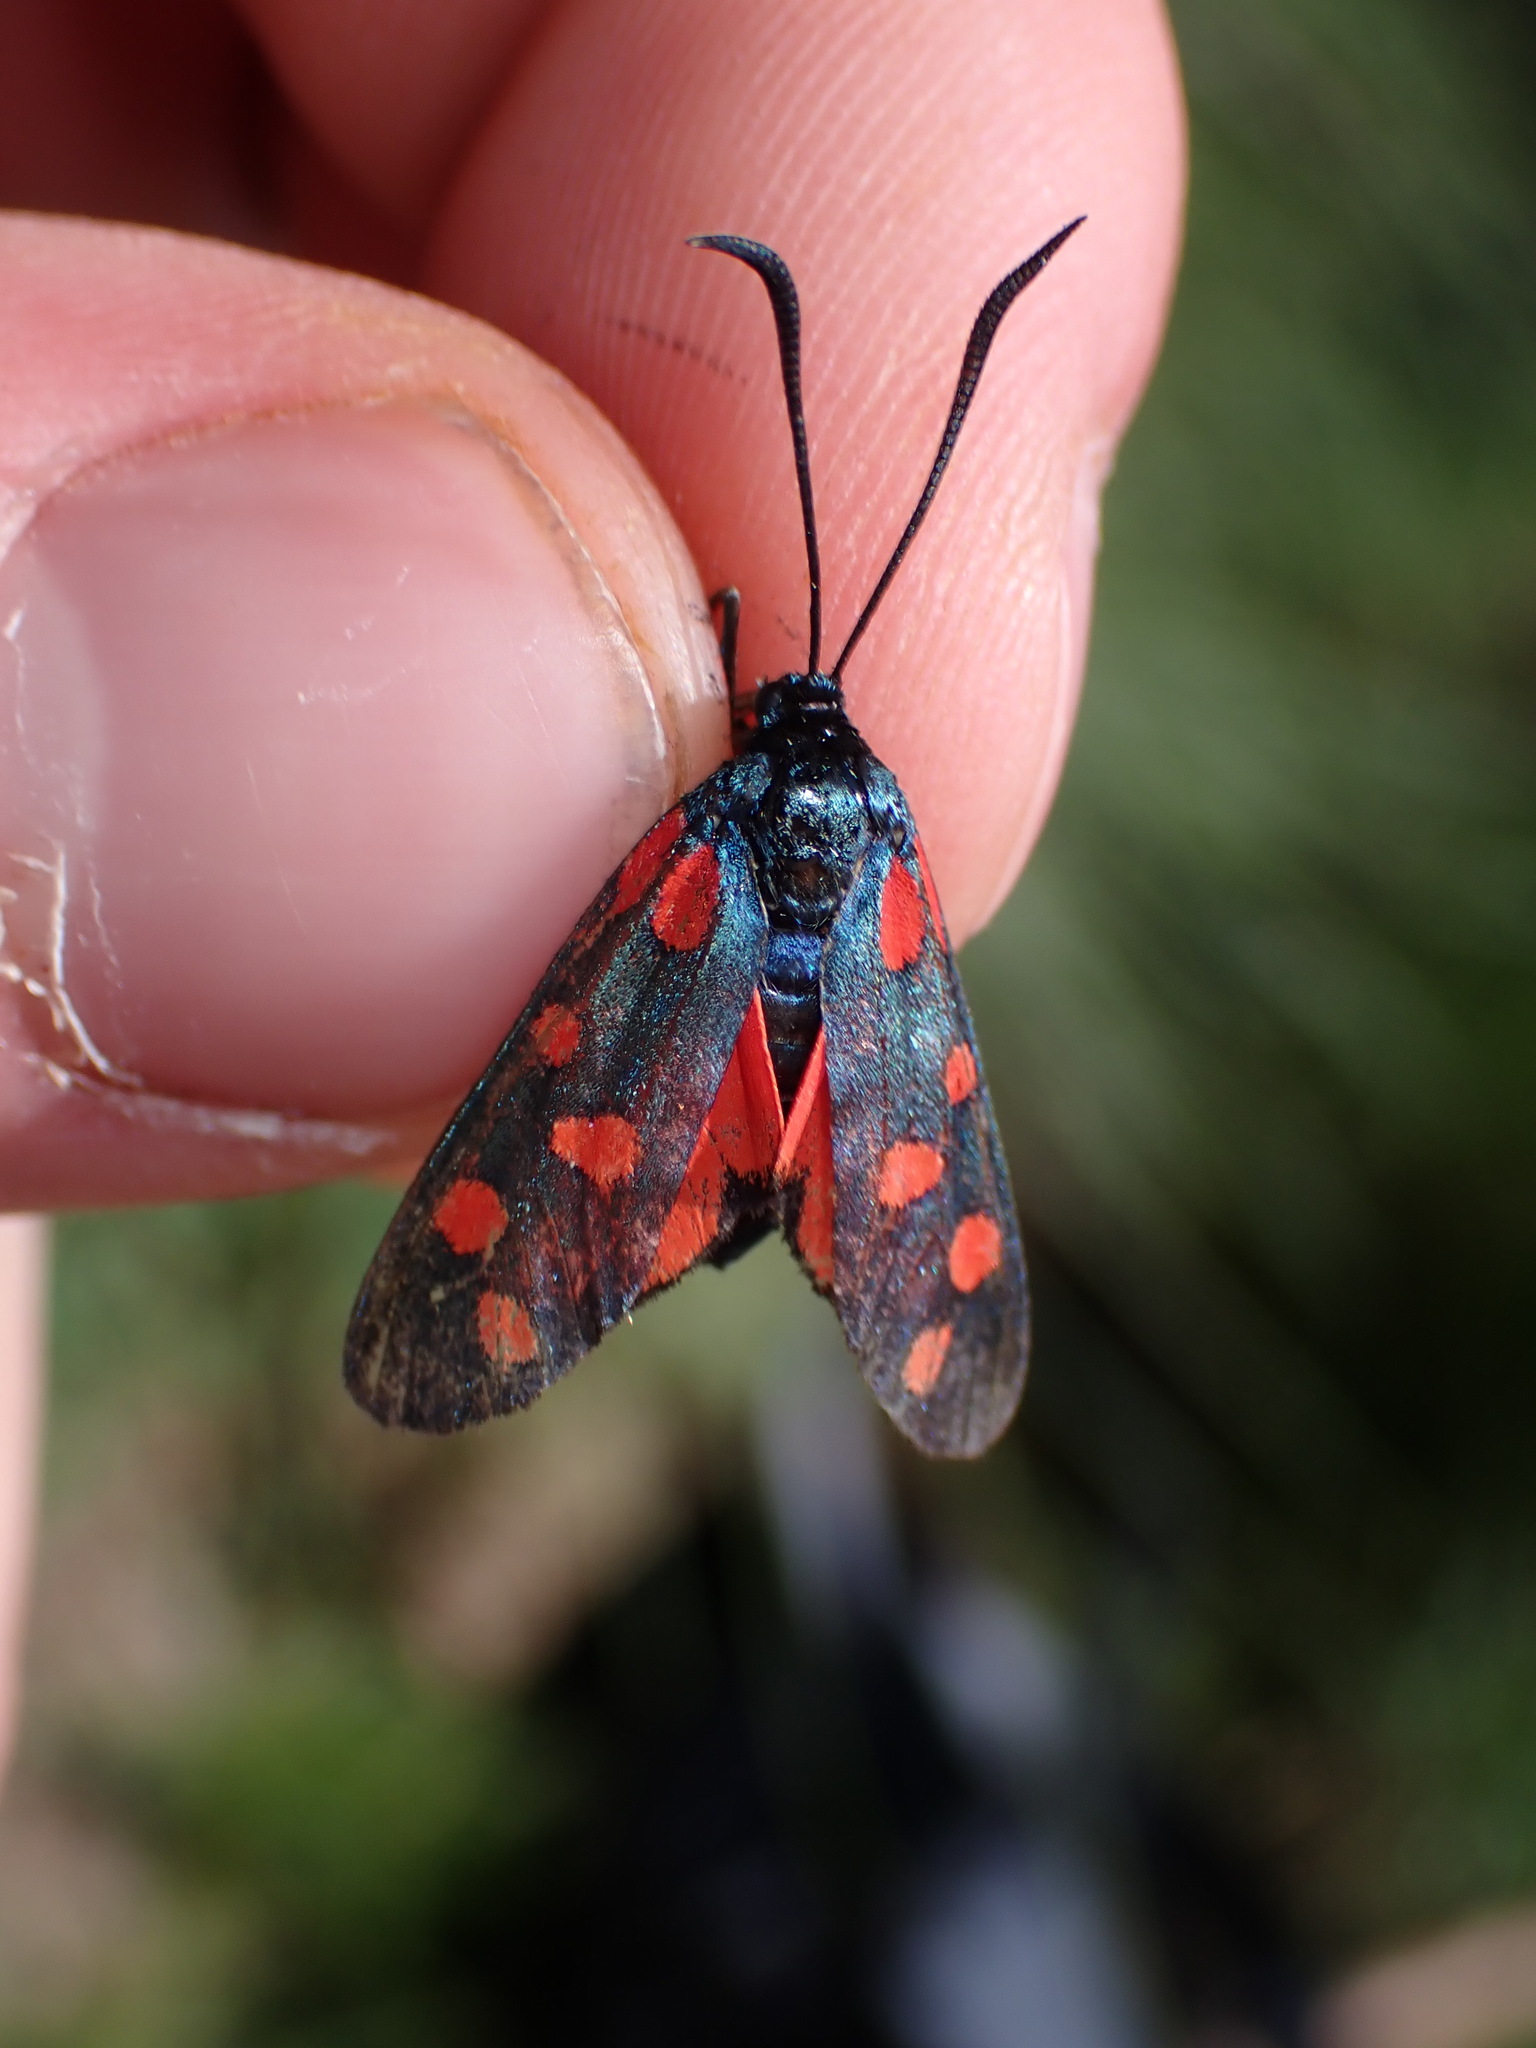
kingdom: Animalia
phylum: Arthropoda
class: Insecta
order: Lepidoptera
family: Zygaenidae
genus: Zygaena
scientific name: Zygaena transalpina
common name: Southern six spot burnet
